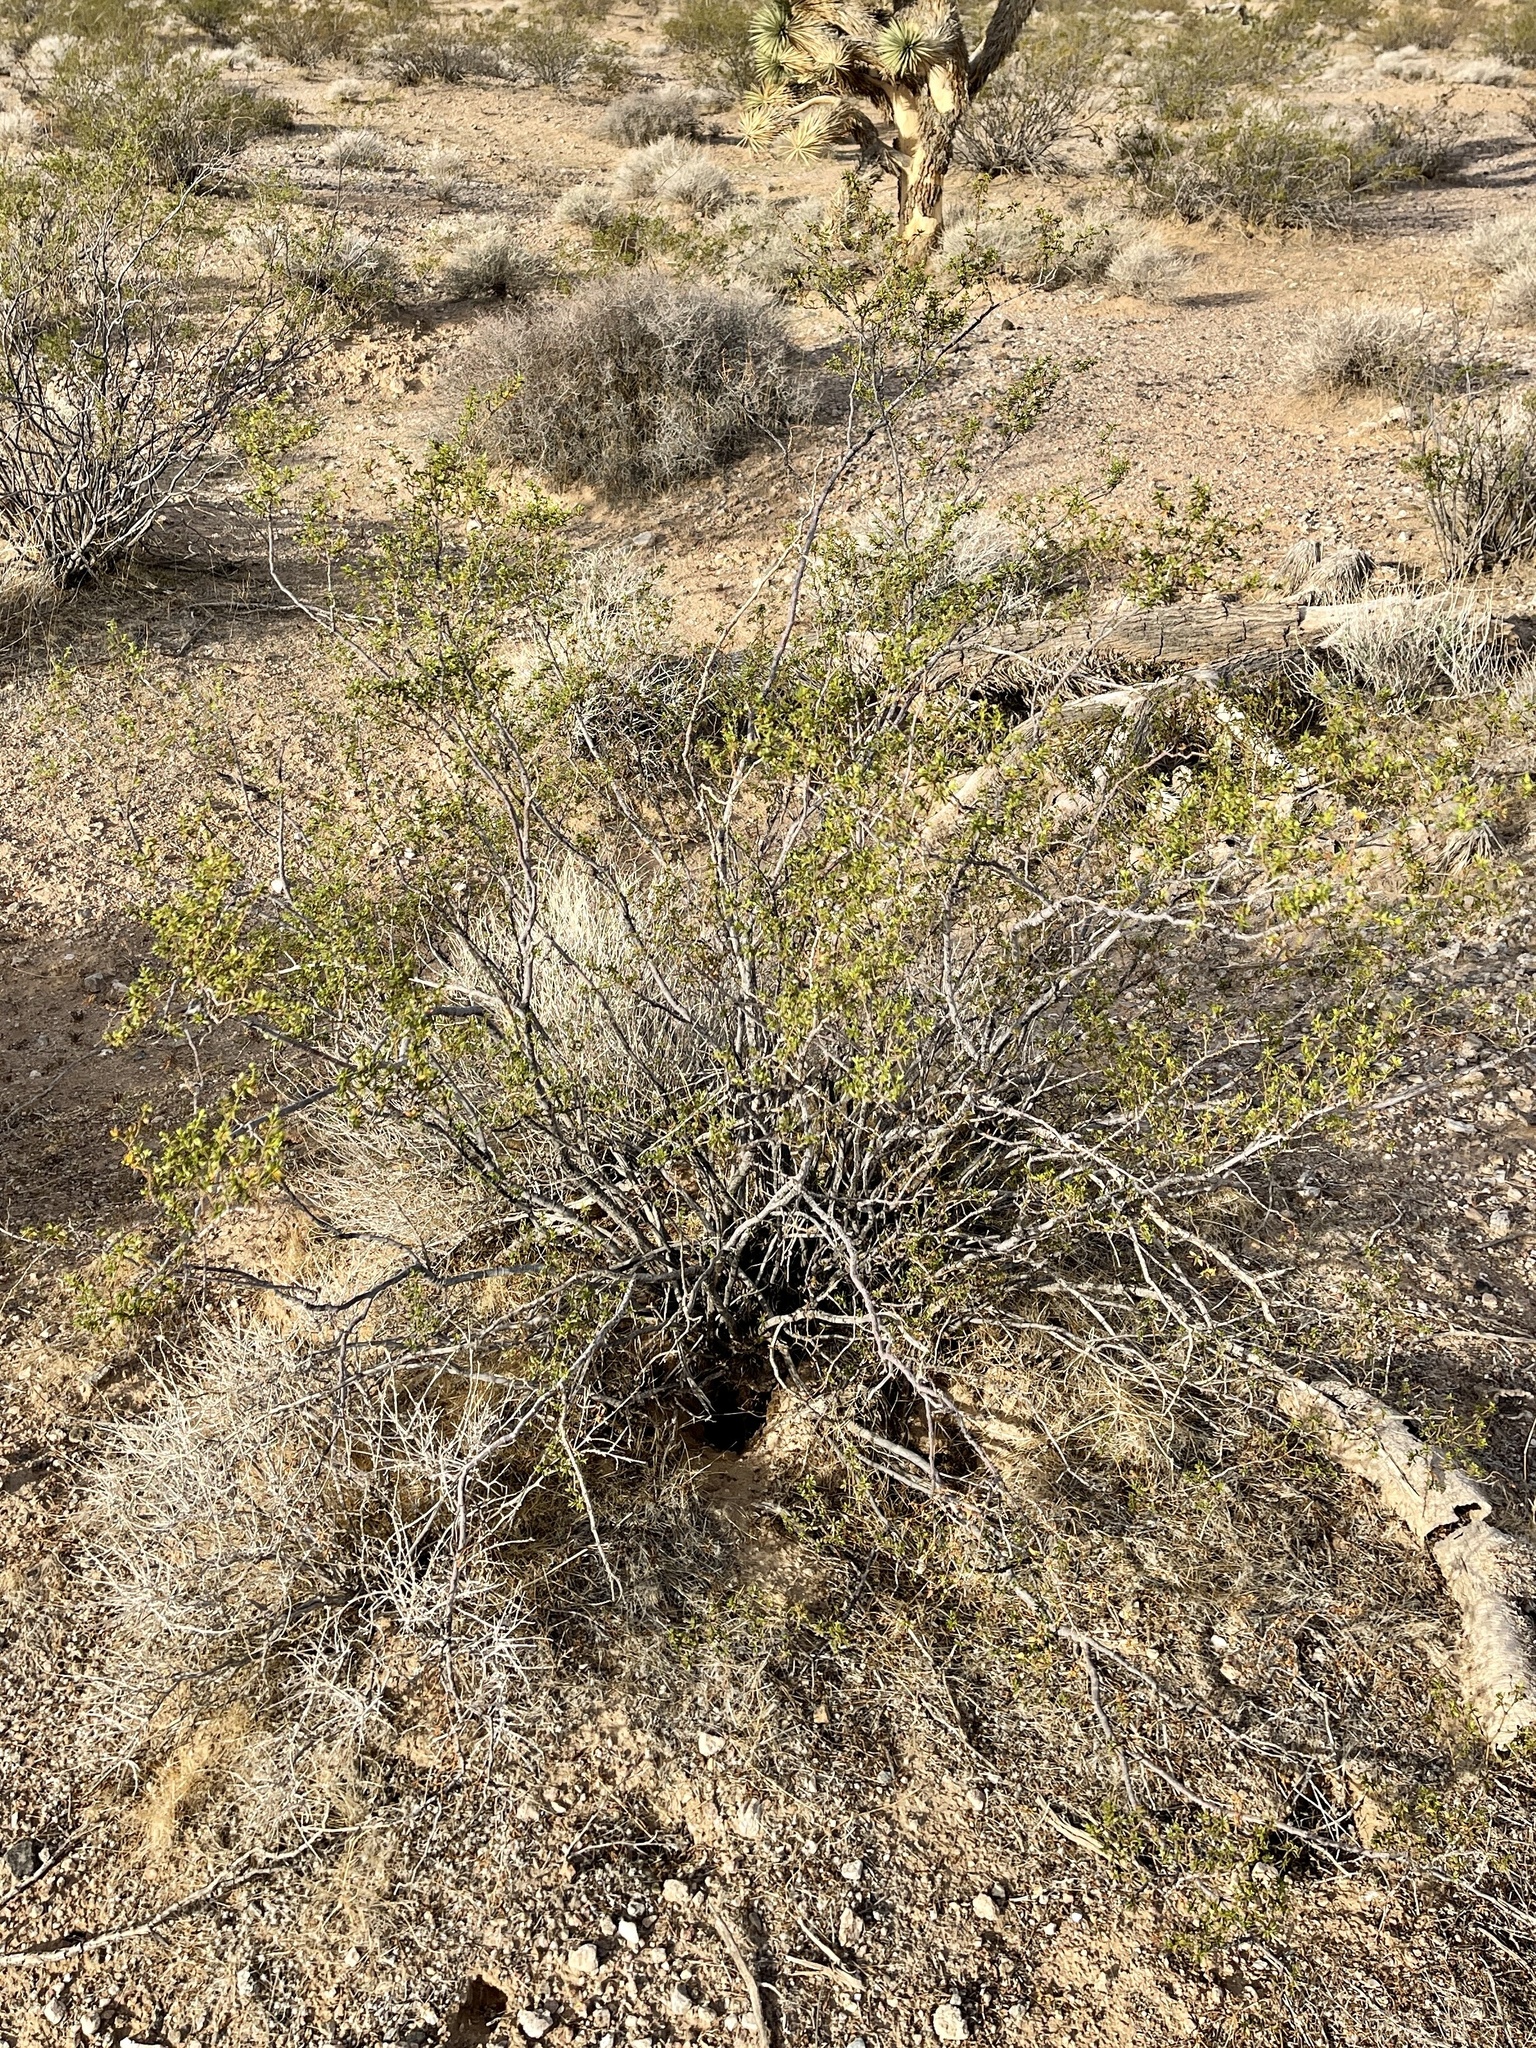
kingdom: Plantae
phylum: Tracheophyta
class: Magnoliopsida
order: Zygophyllales
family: Zygophyllaceae
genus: Larrea
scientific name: Larrea tridentata
